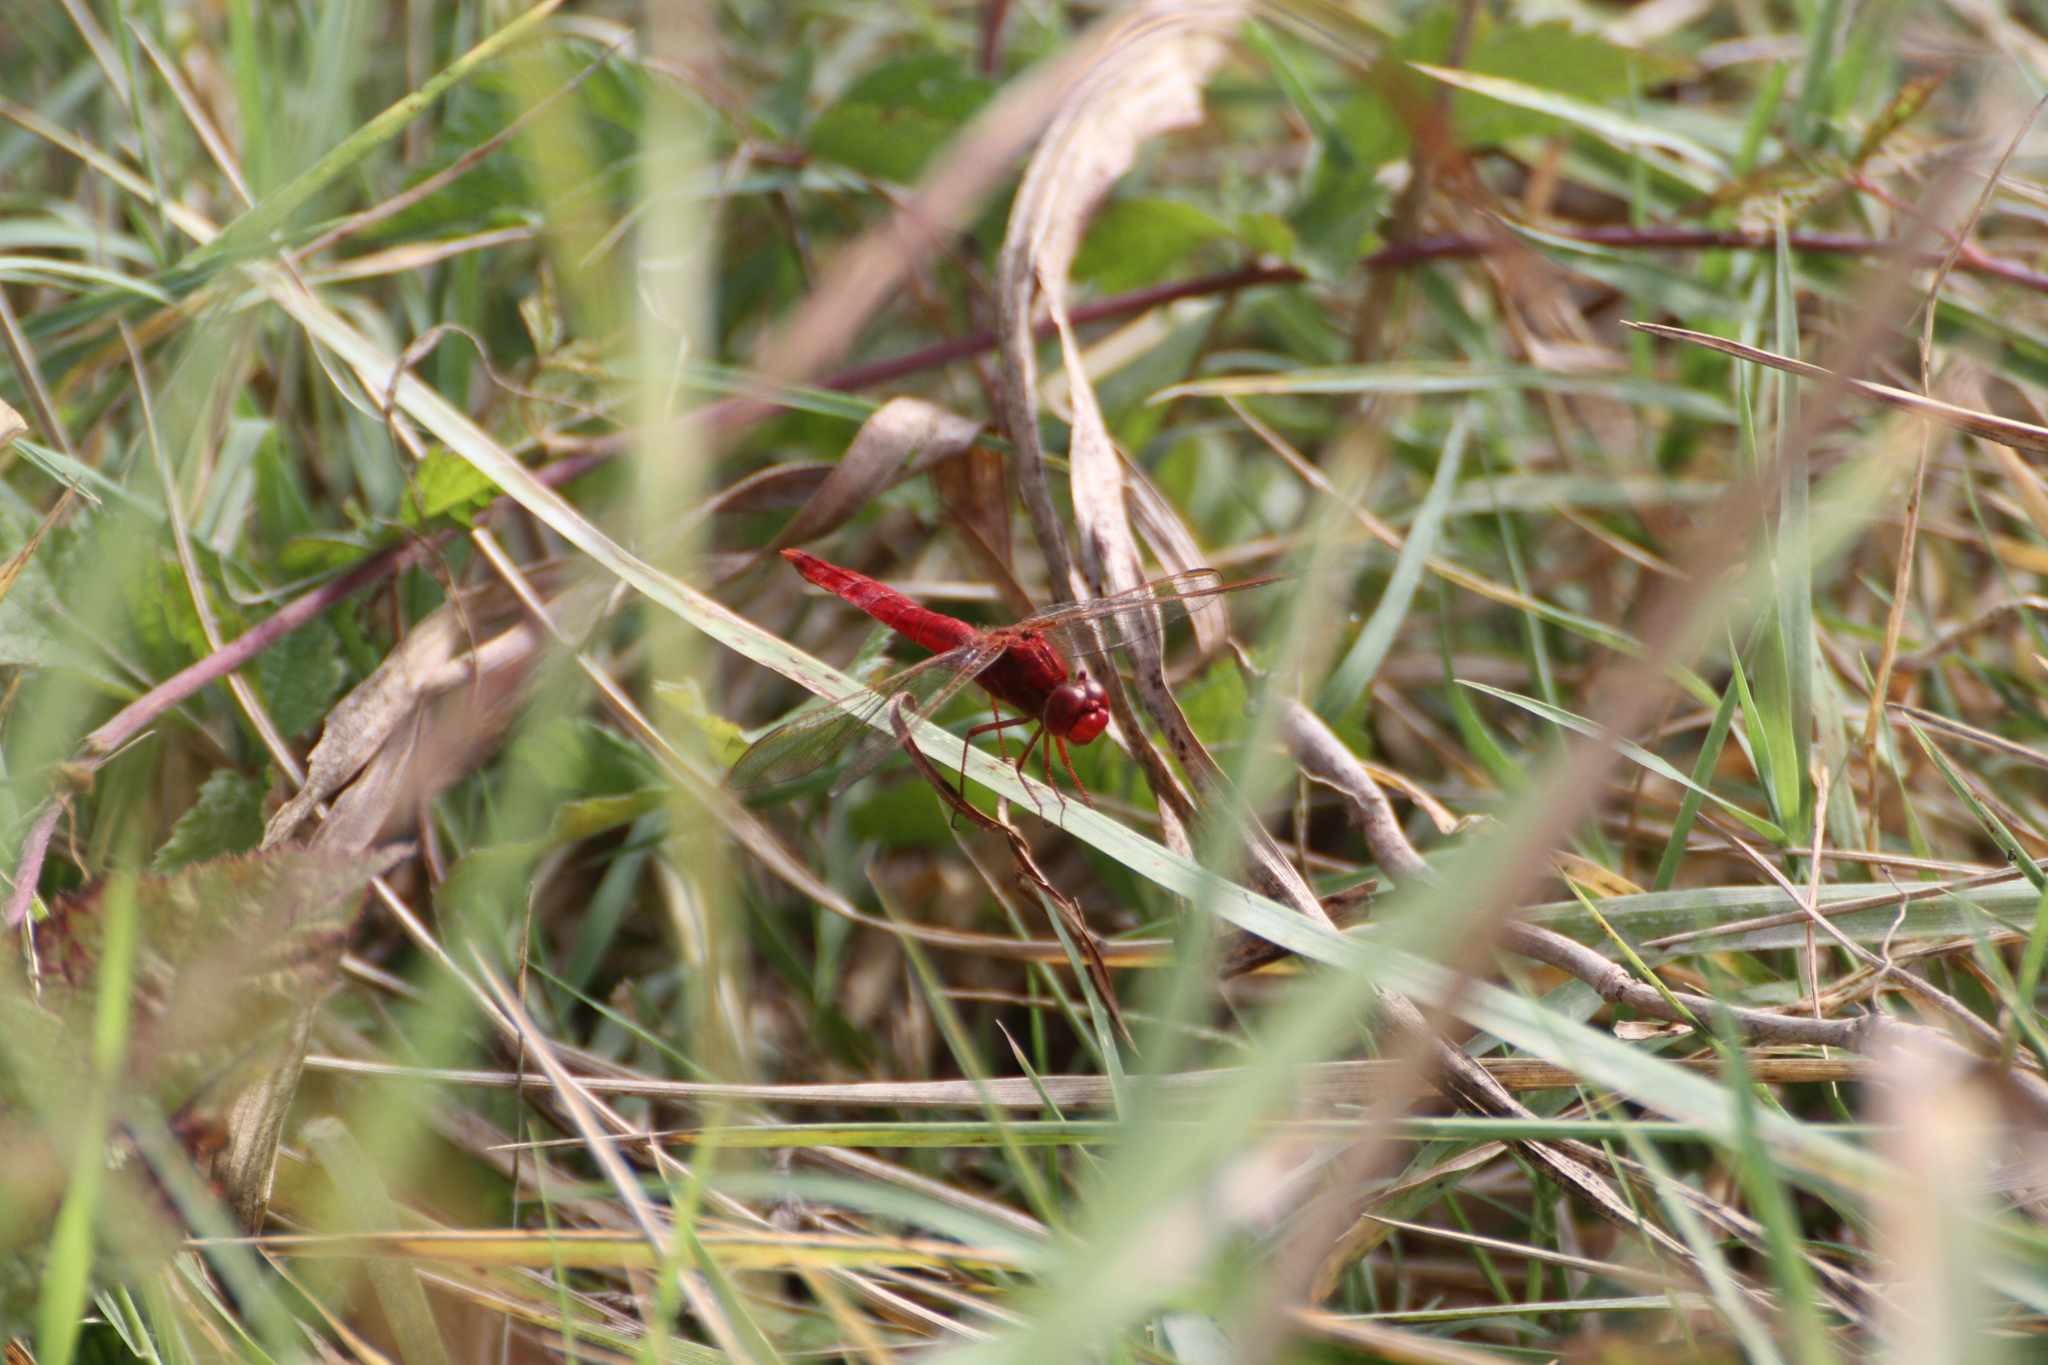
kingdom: Animalia
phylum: Arthropoda
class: Insecta
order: Odonata
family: Libellulidae
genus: Crocothemis
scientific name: Crocothemis erythraea
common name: Scarlet dragonfly
